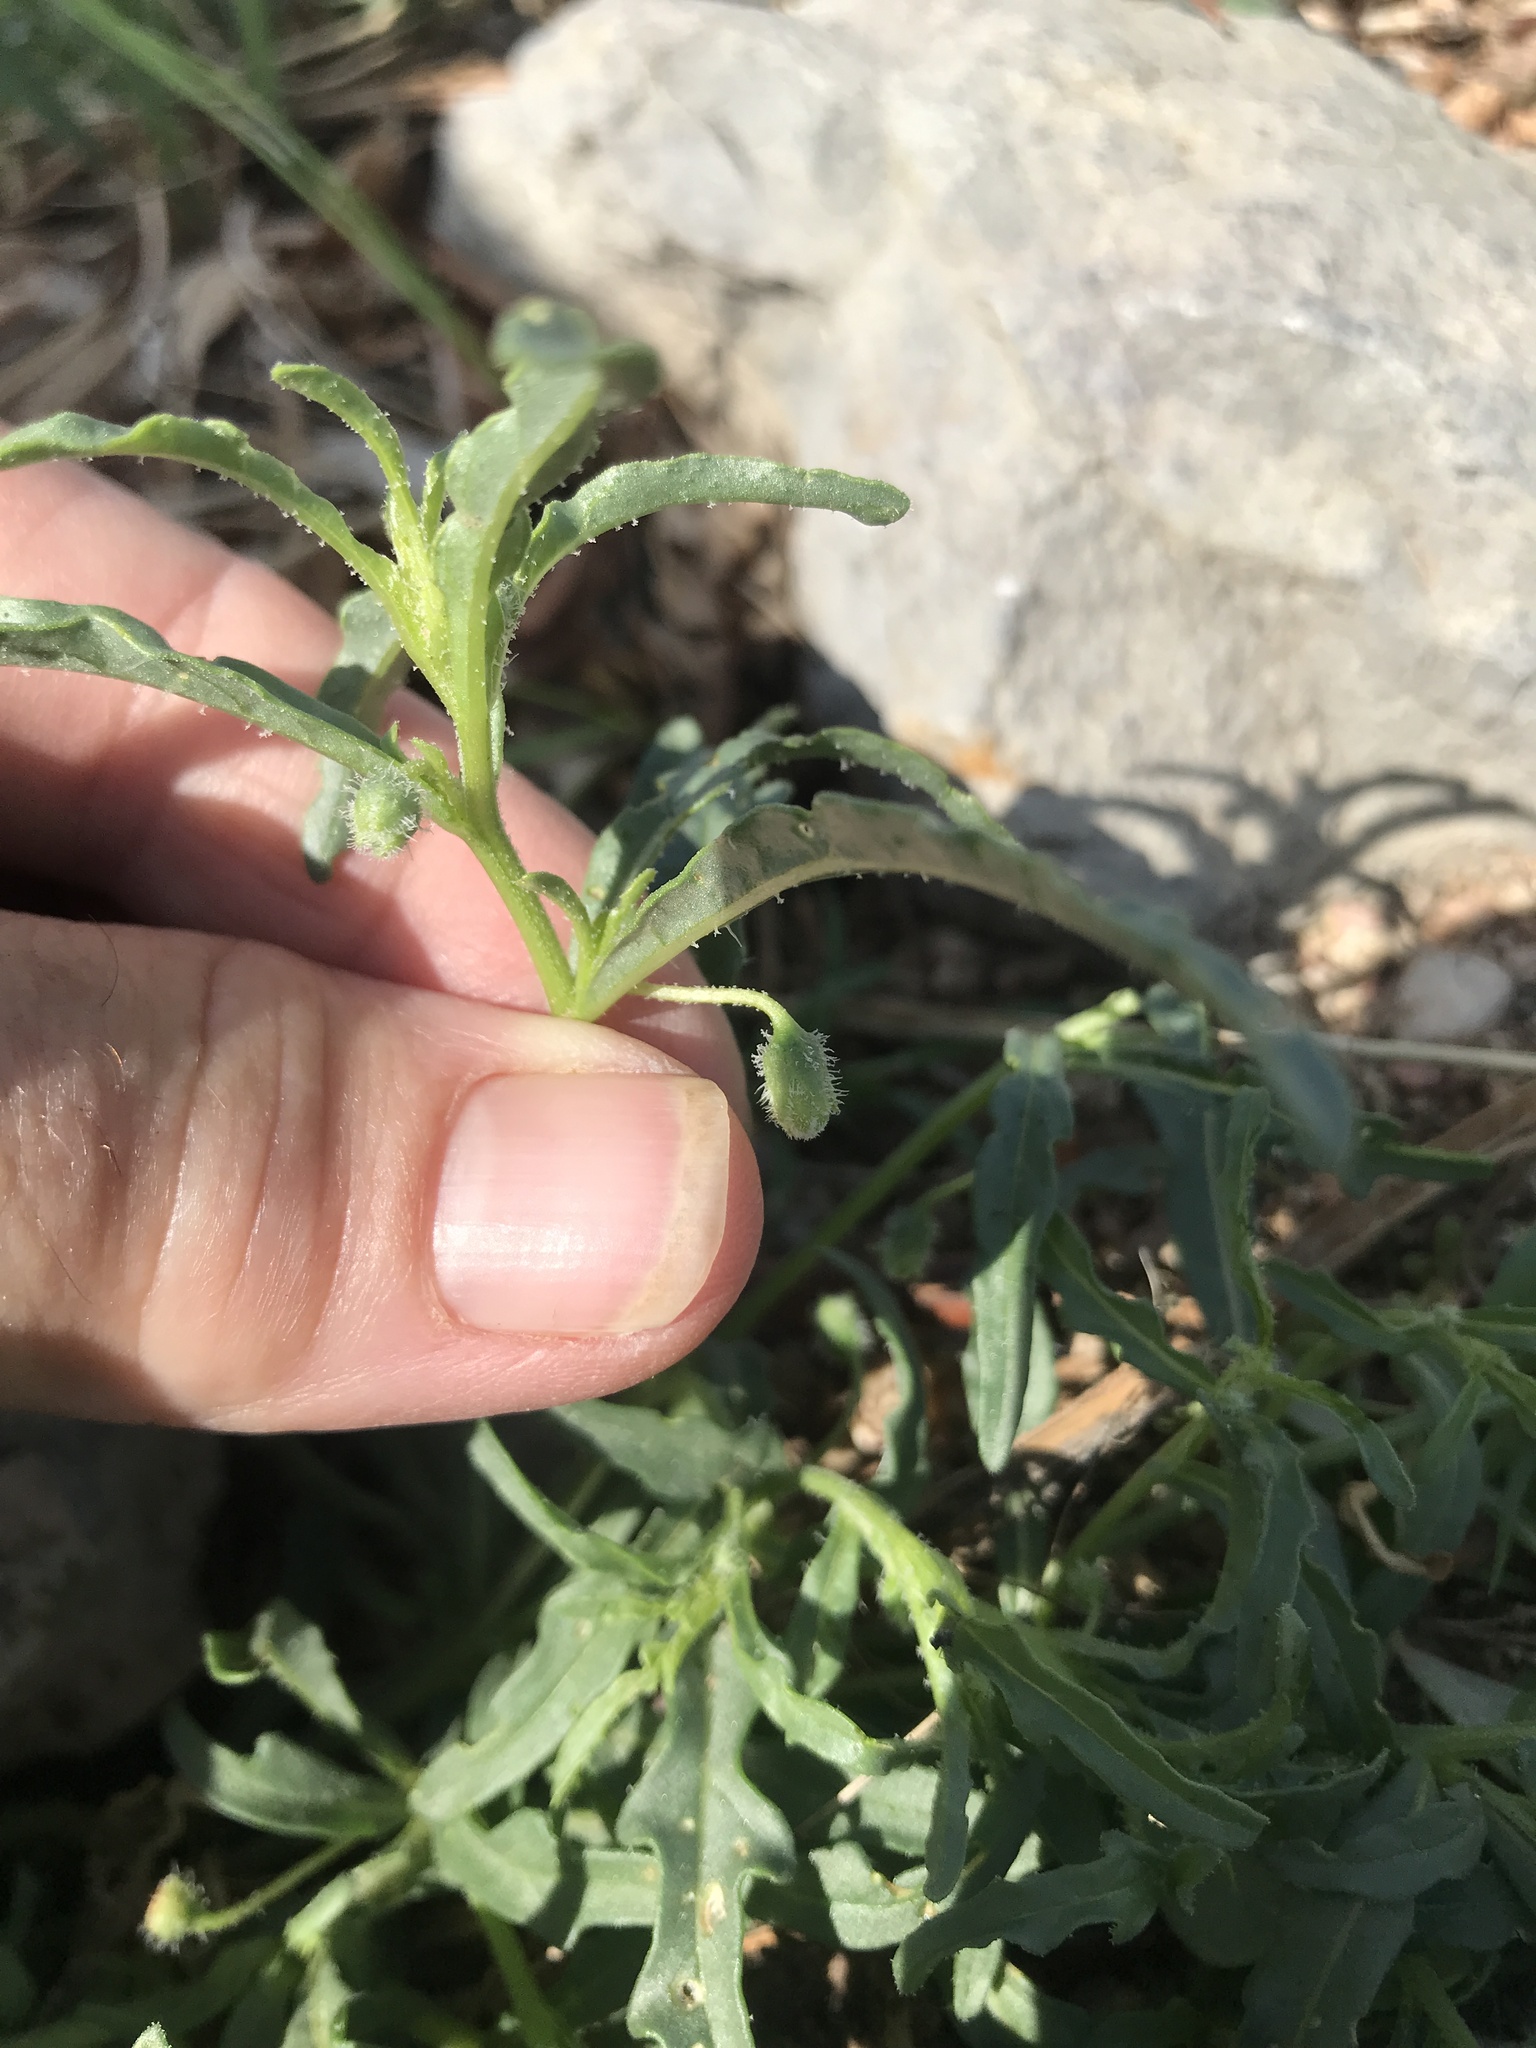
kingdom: Plantae
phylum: Tracheophyta
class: Magnoliopsida
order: Solanales
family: Solanaceae
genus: Chamaesaracha
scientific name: Chamaesaracha coronopus
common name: Smooth chamaesaracha
